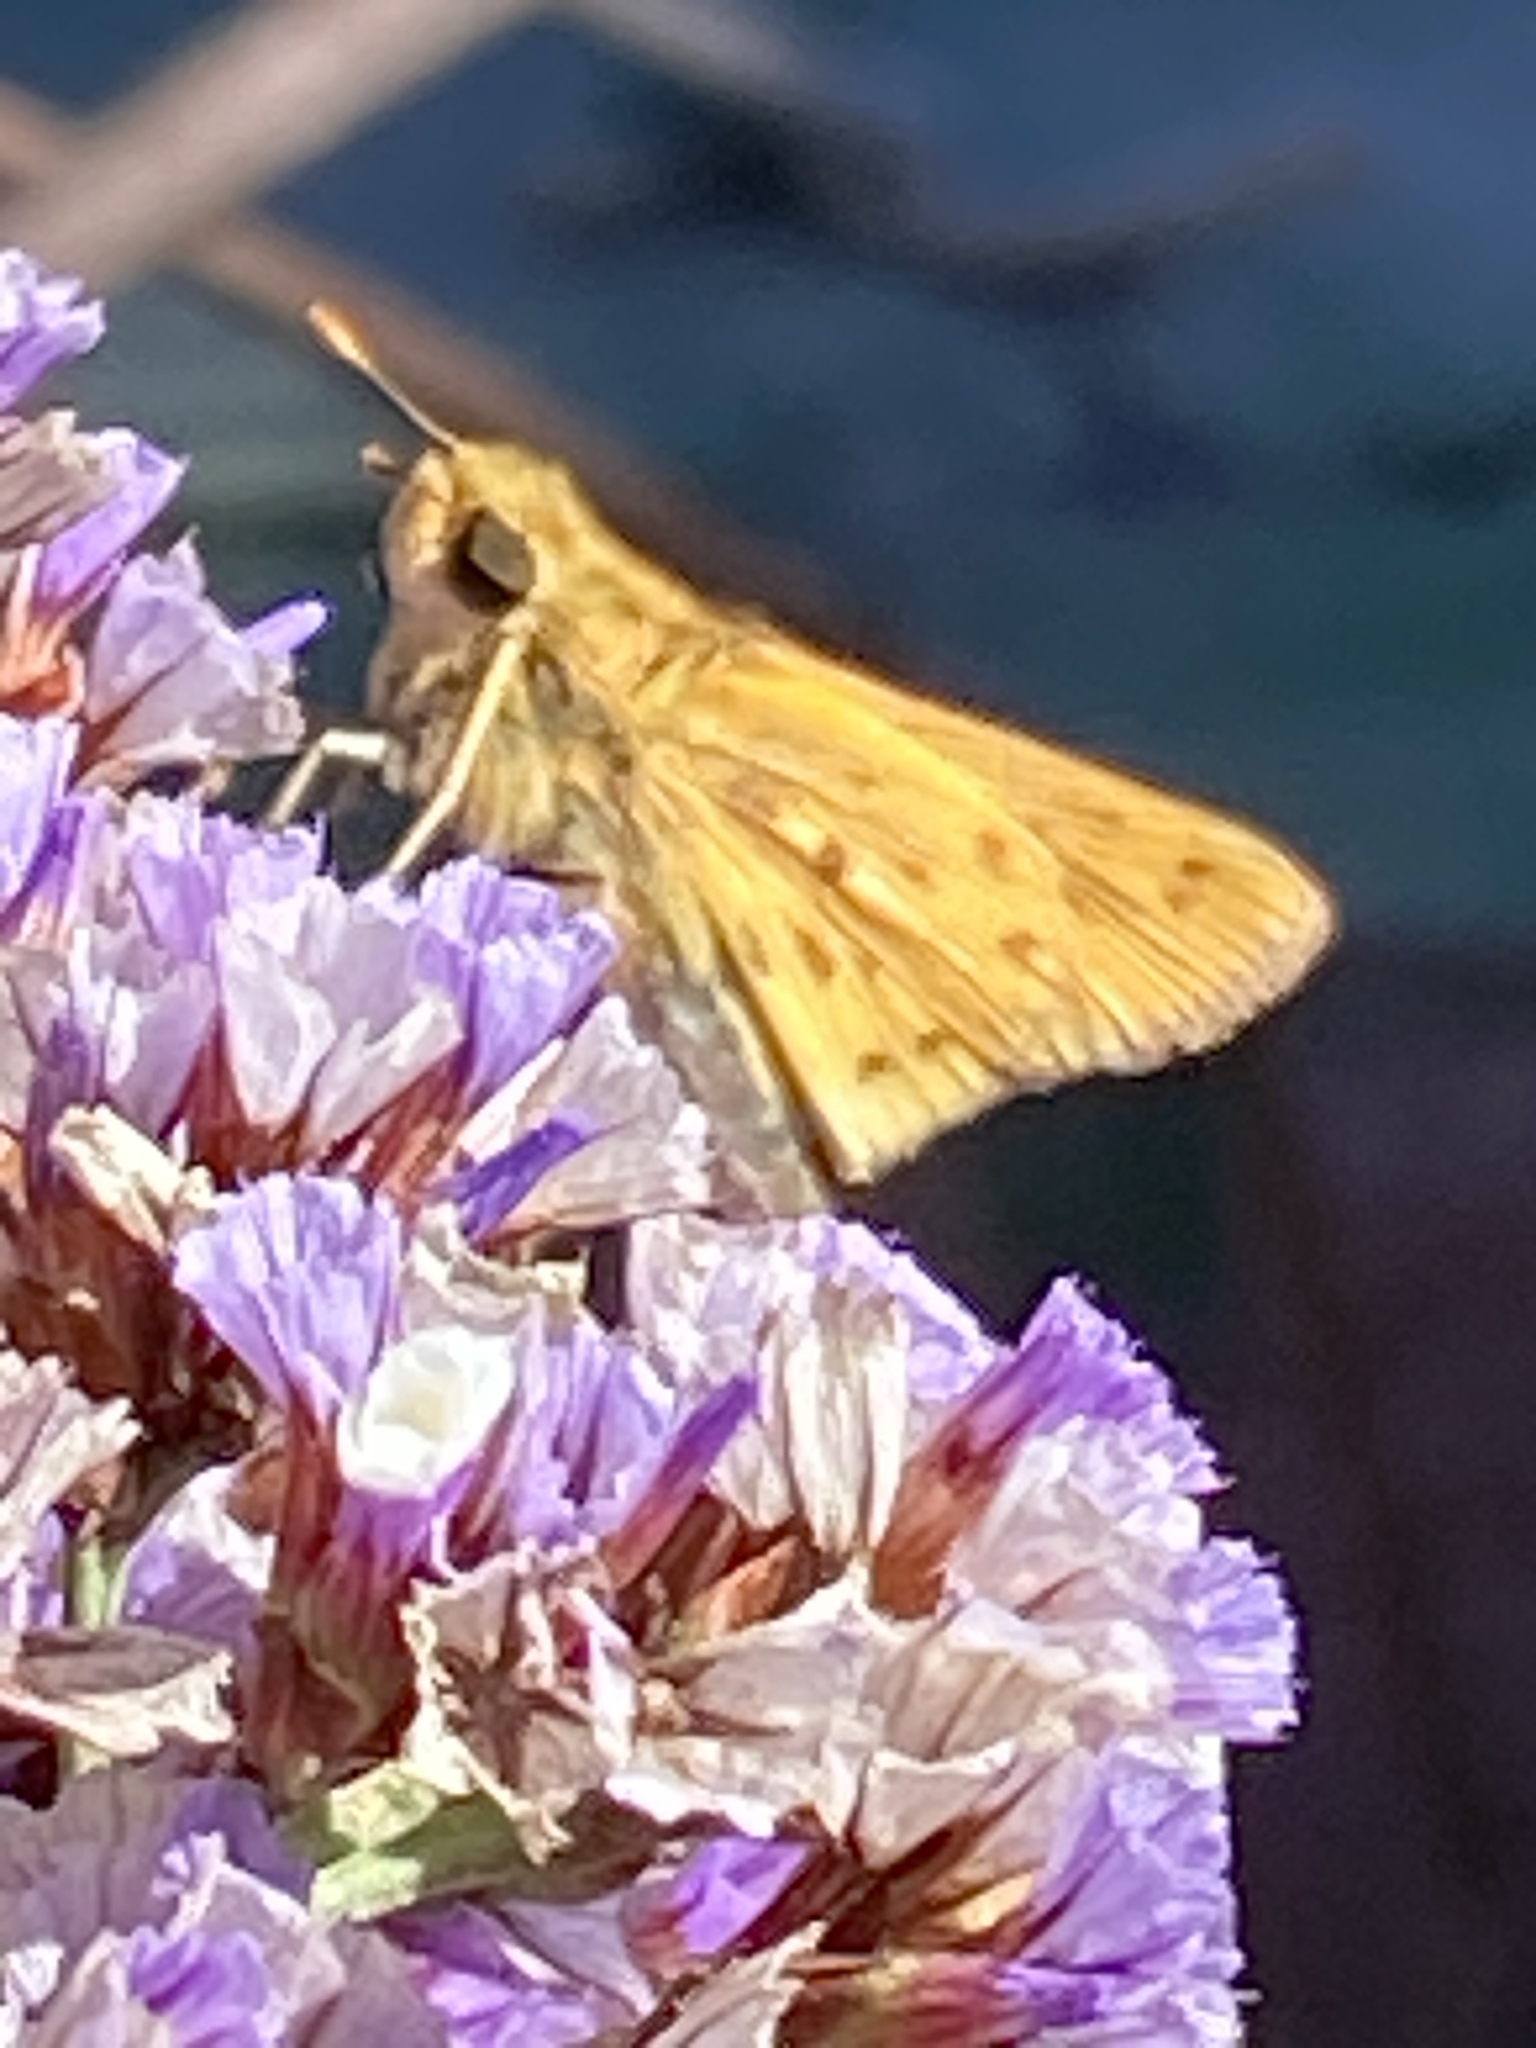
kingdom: Animalia
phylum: Arthropoda
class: Insecta
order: Lepidoptera
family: Hesperiidae
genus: Hylephila
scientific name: Hylephila phyleus
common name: Fiery skipper
